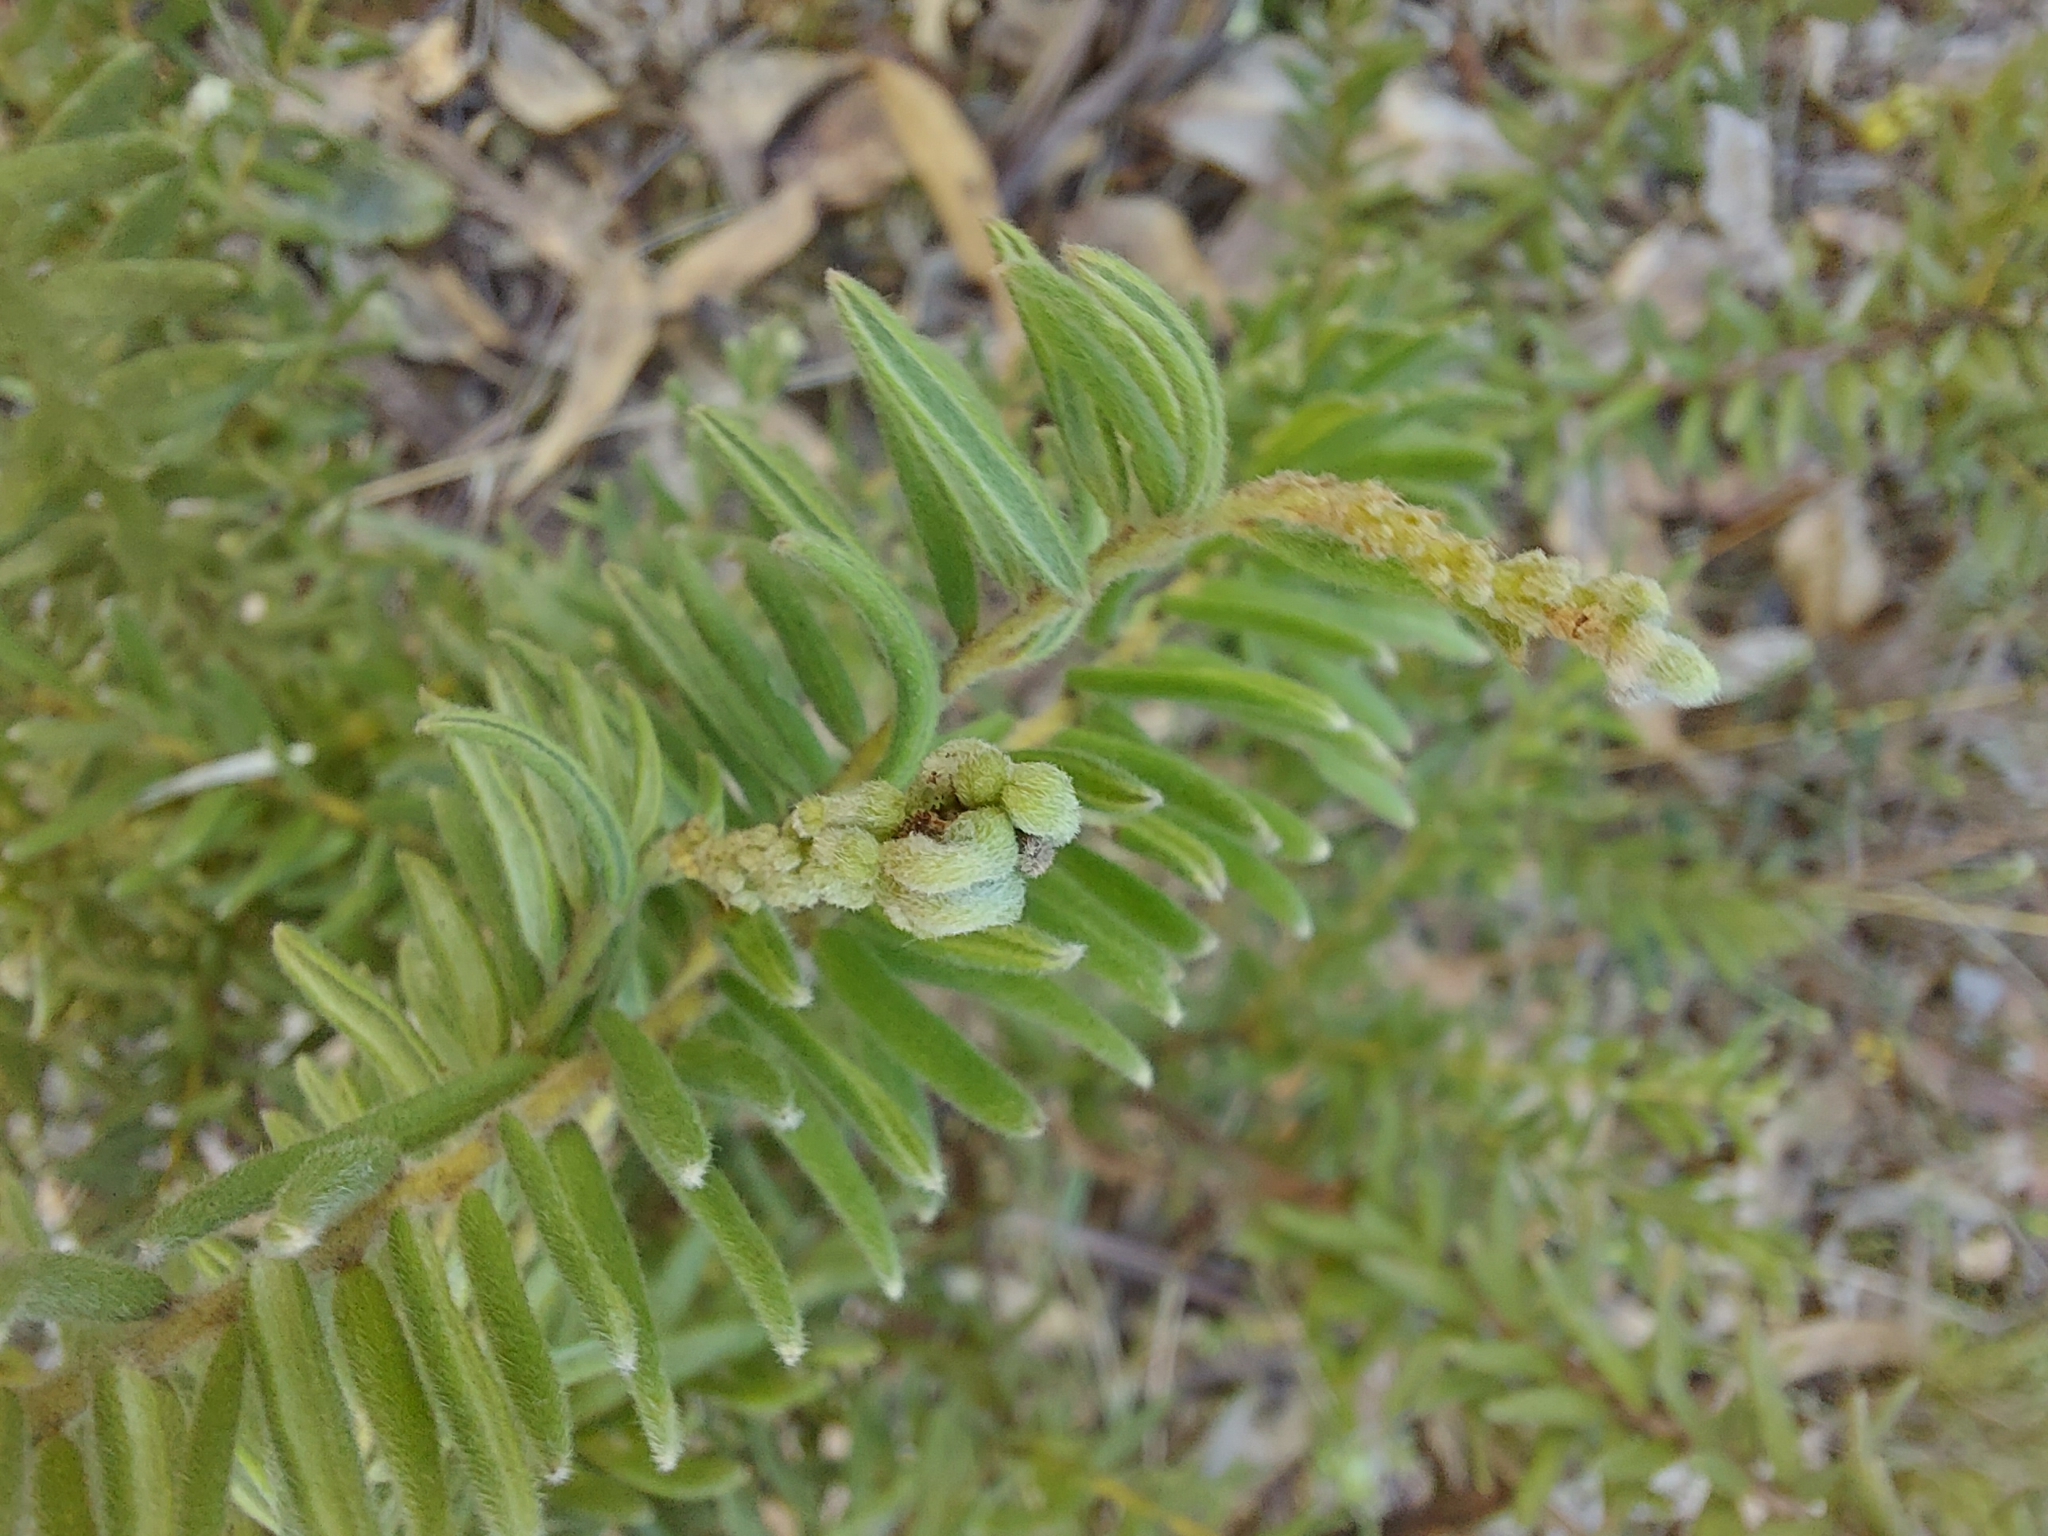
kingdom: Plantae
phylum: Tracheophyta
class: Magnoliopsida
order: Proteales
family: Proteaceae
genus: Grevillea
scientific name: Grevillea alpina
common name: Catclaws grevillea
